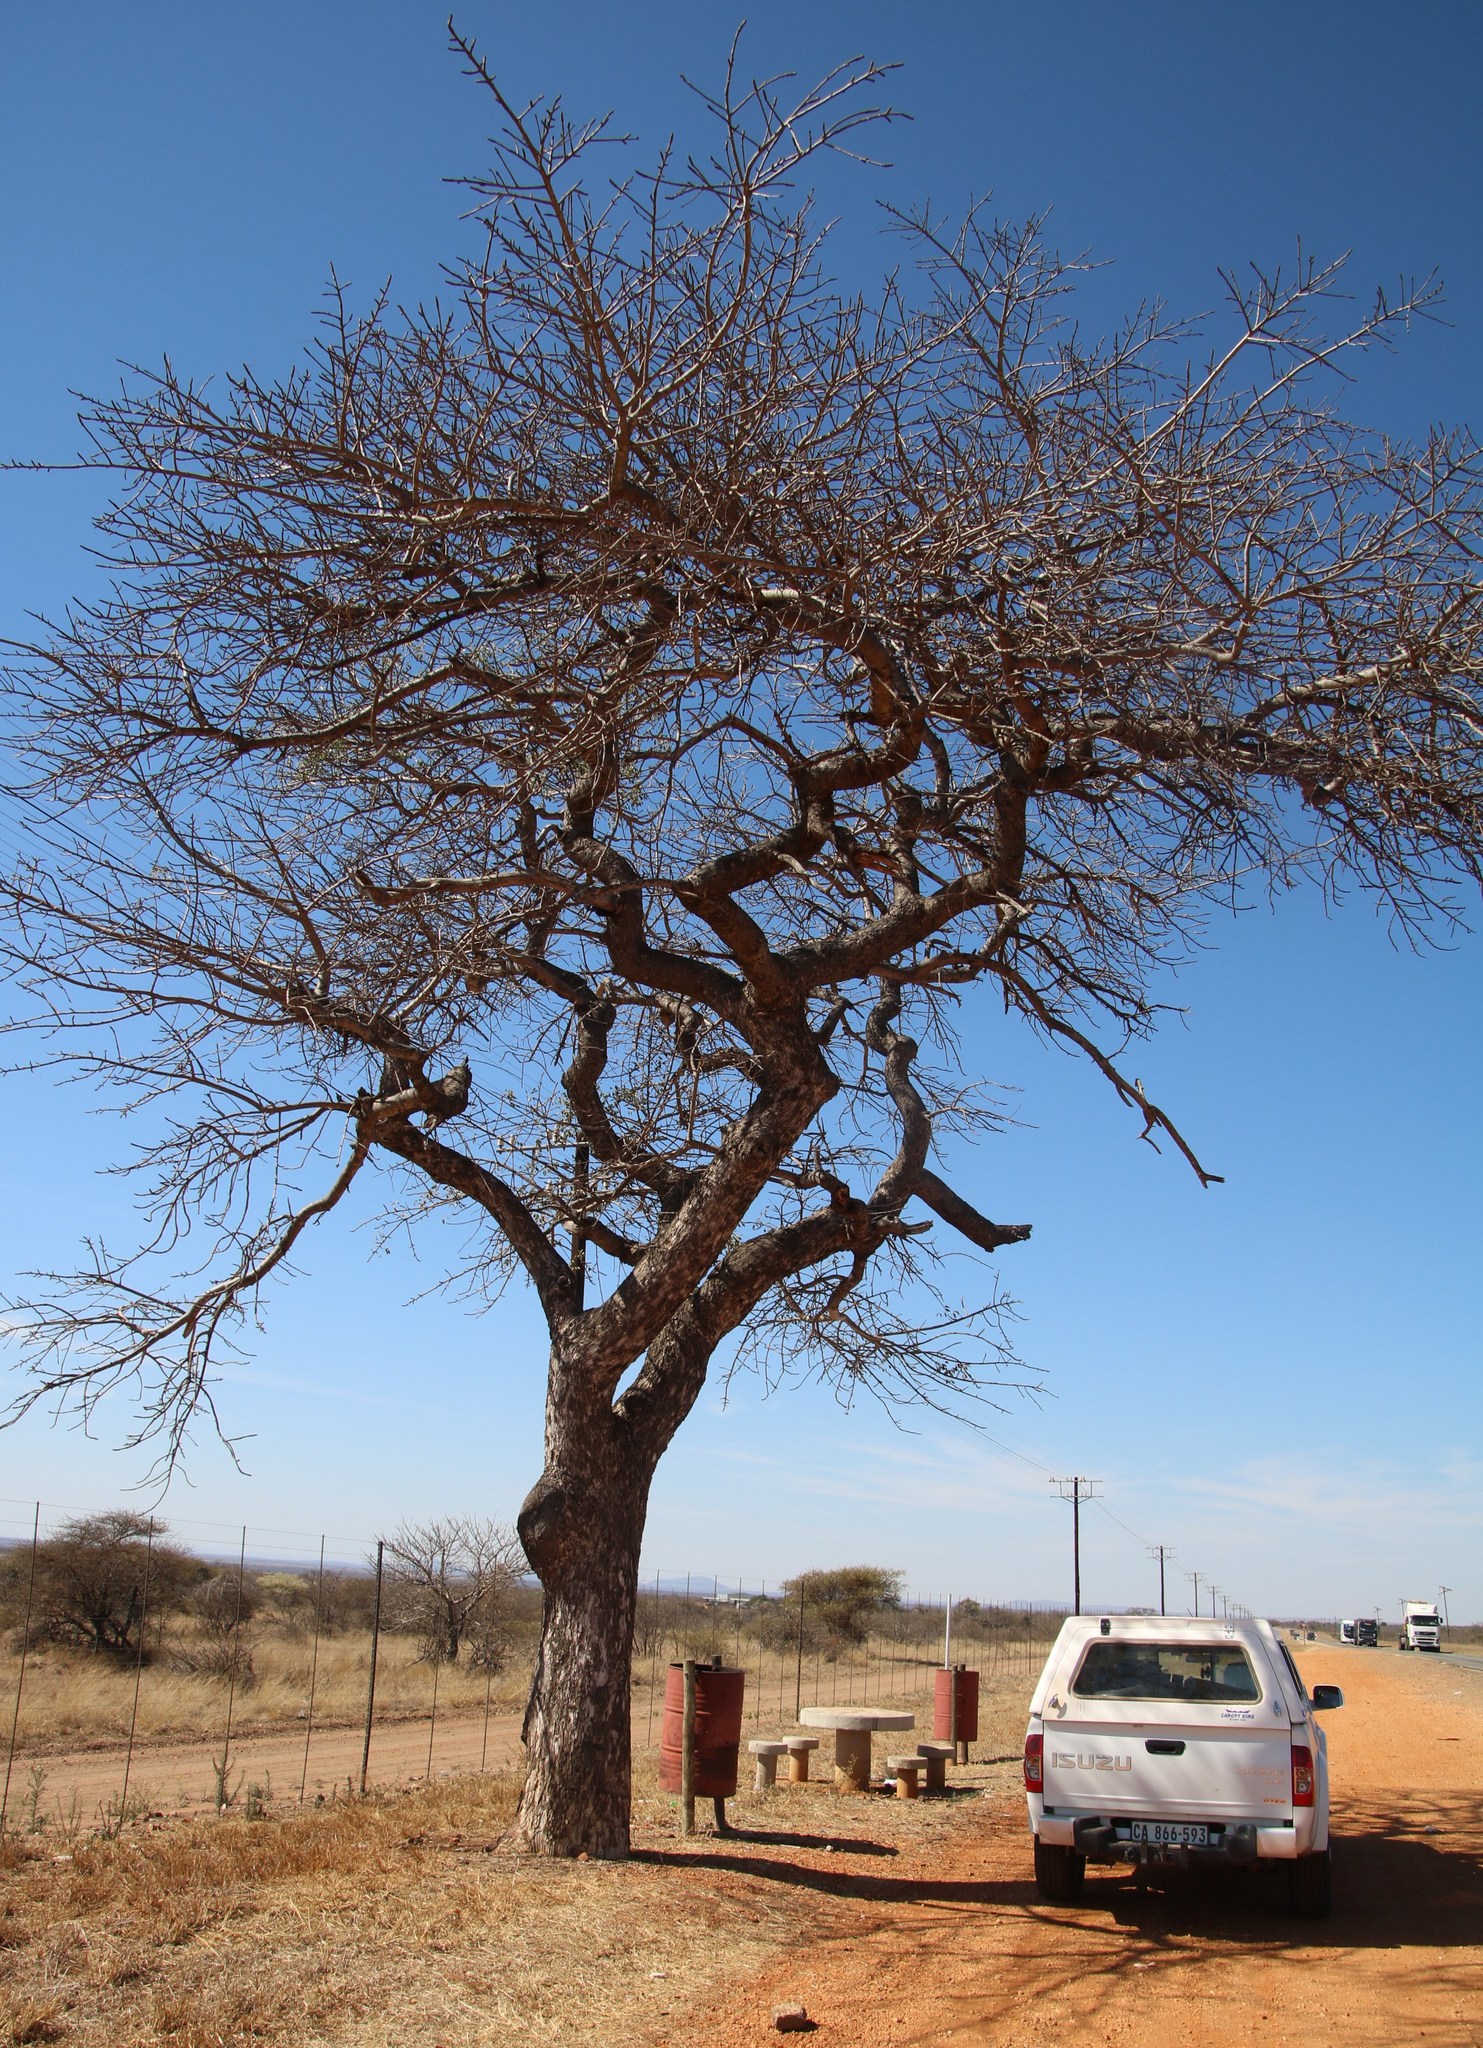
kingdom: Plantae
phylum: Tracheophyta
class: Magnoliopsida
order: Sapindales
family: Anacardiaceae
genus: Sclerocarya
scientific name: Sclerocarya birrea
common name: Marula
